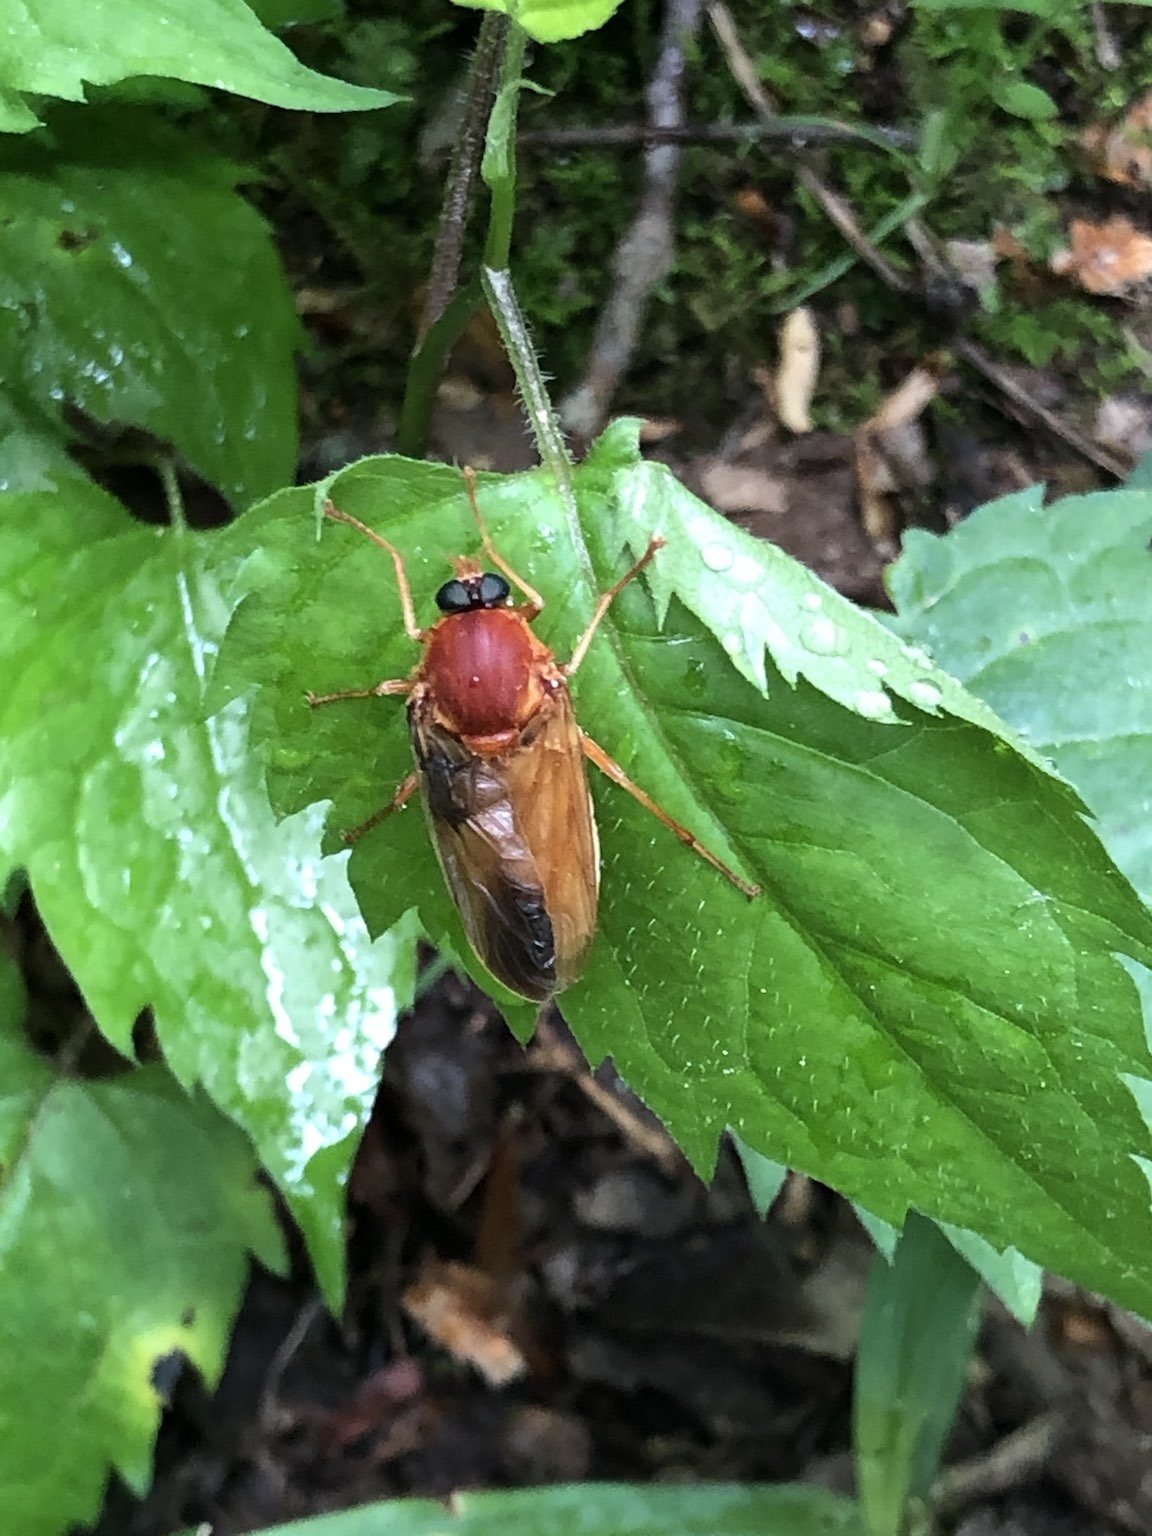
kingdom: Animalia
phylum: Arthropoda
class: Insecta
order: Diptera
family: Xylophagidae
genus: Coenomyia
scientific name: Coenomyia ferruginea
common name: Stink fly
